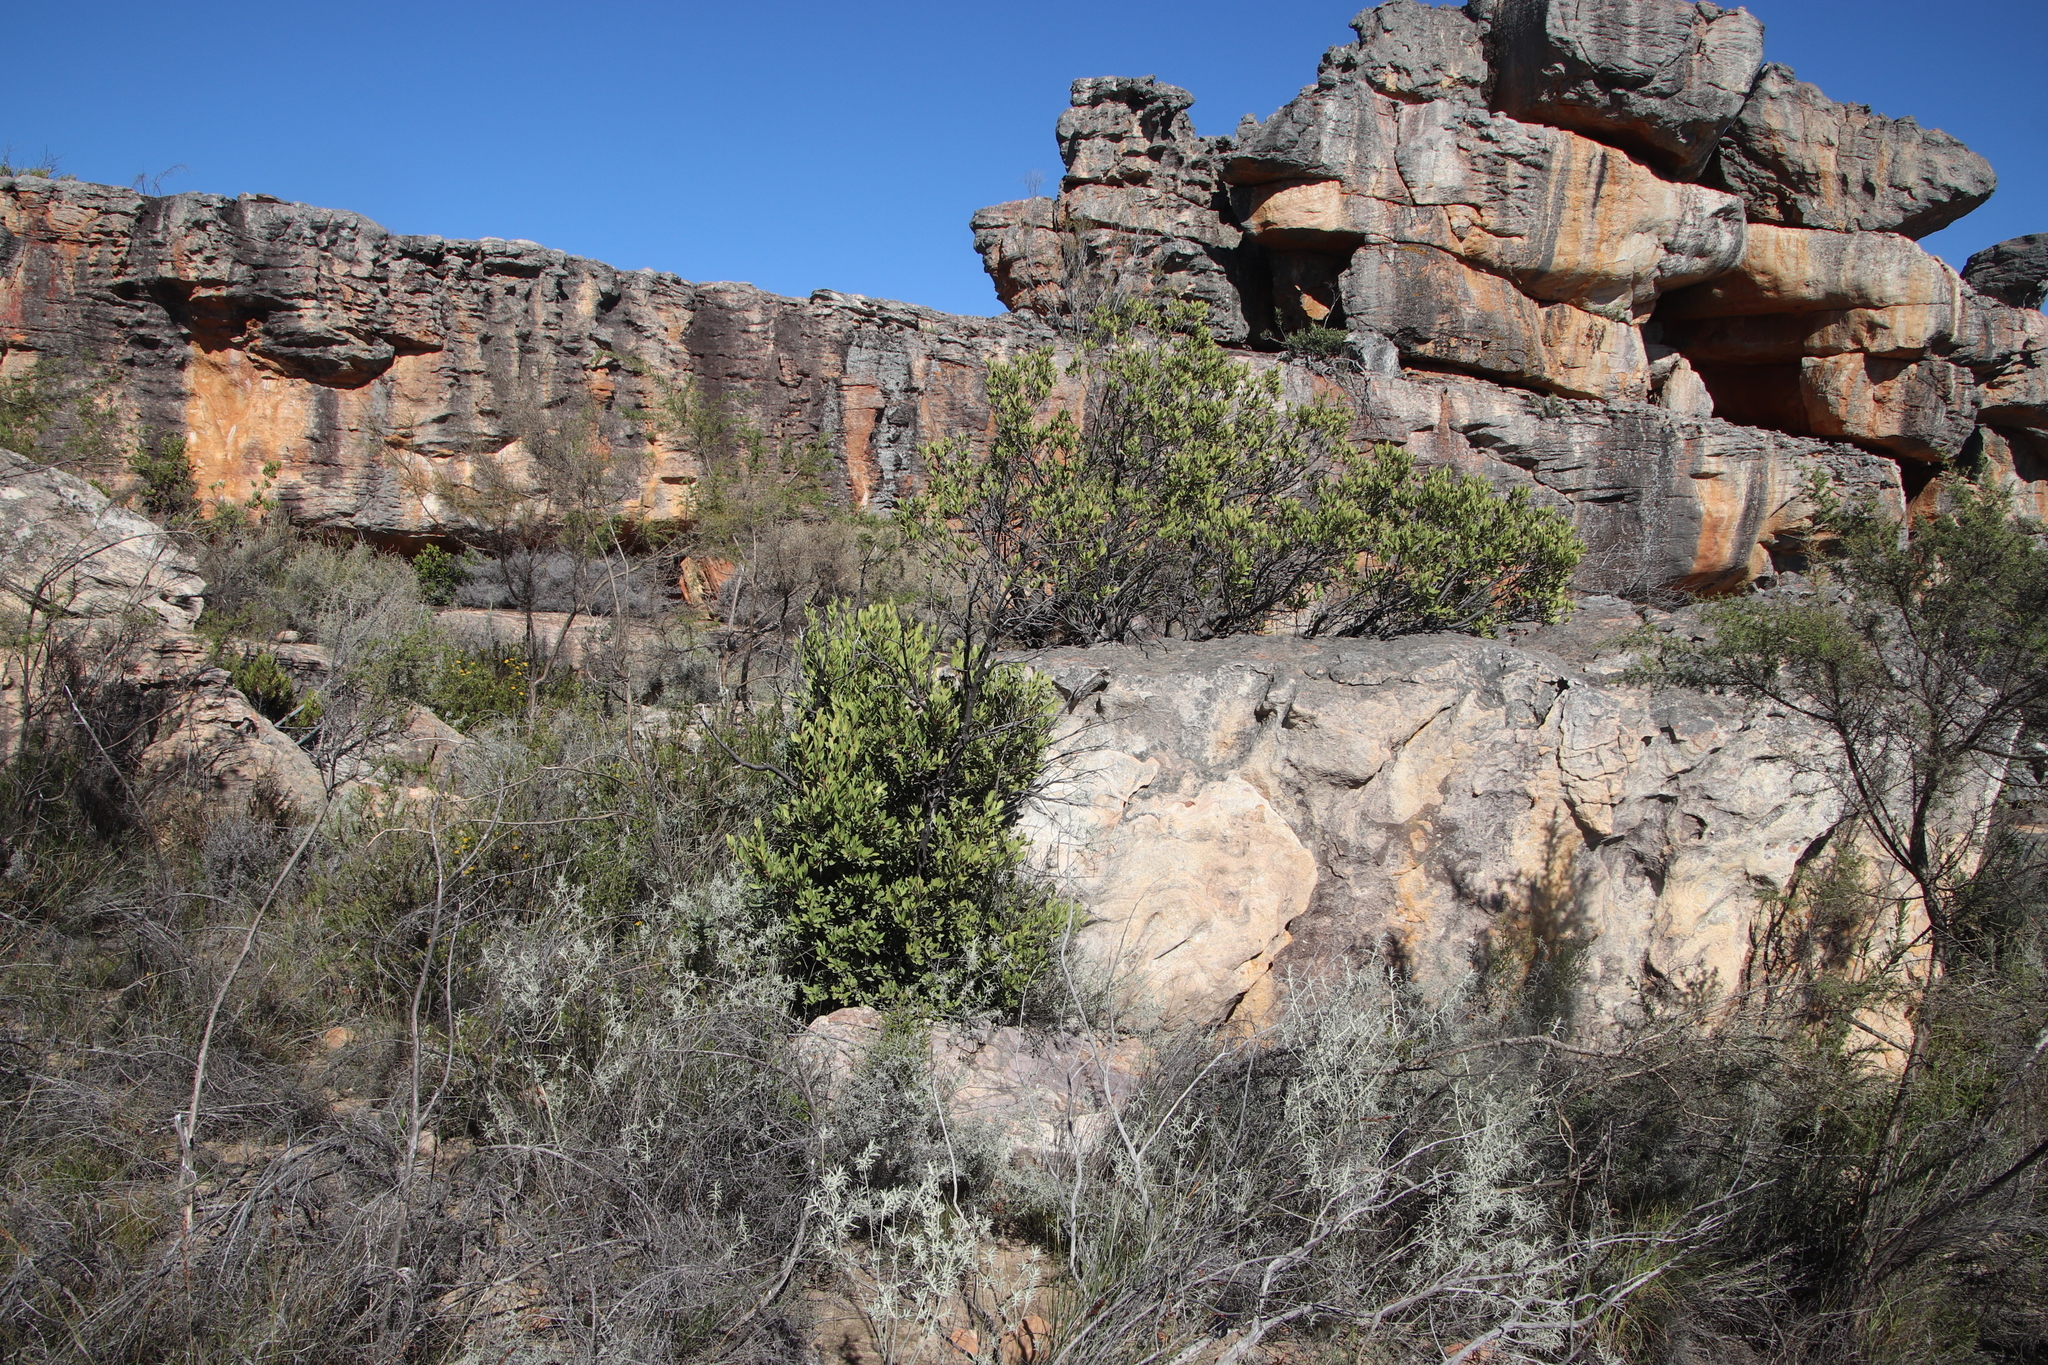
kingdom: Plantae
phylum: Tracheophyta
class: Magnoliopsida
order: Celastrales
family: Celastraceae
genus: Gymnosporia
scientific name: Gymnosporia laurina
